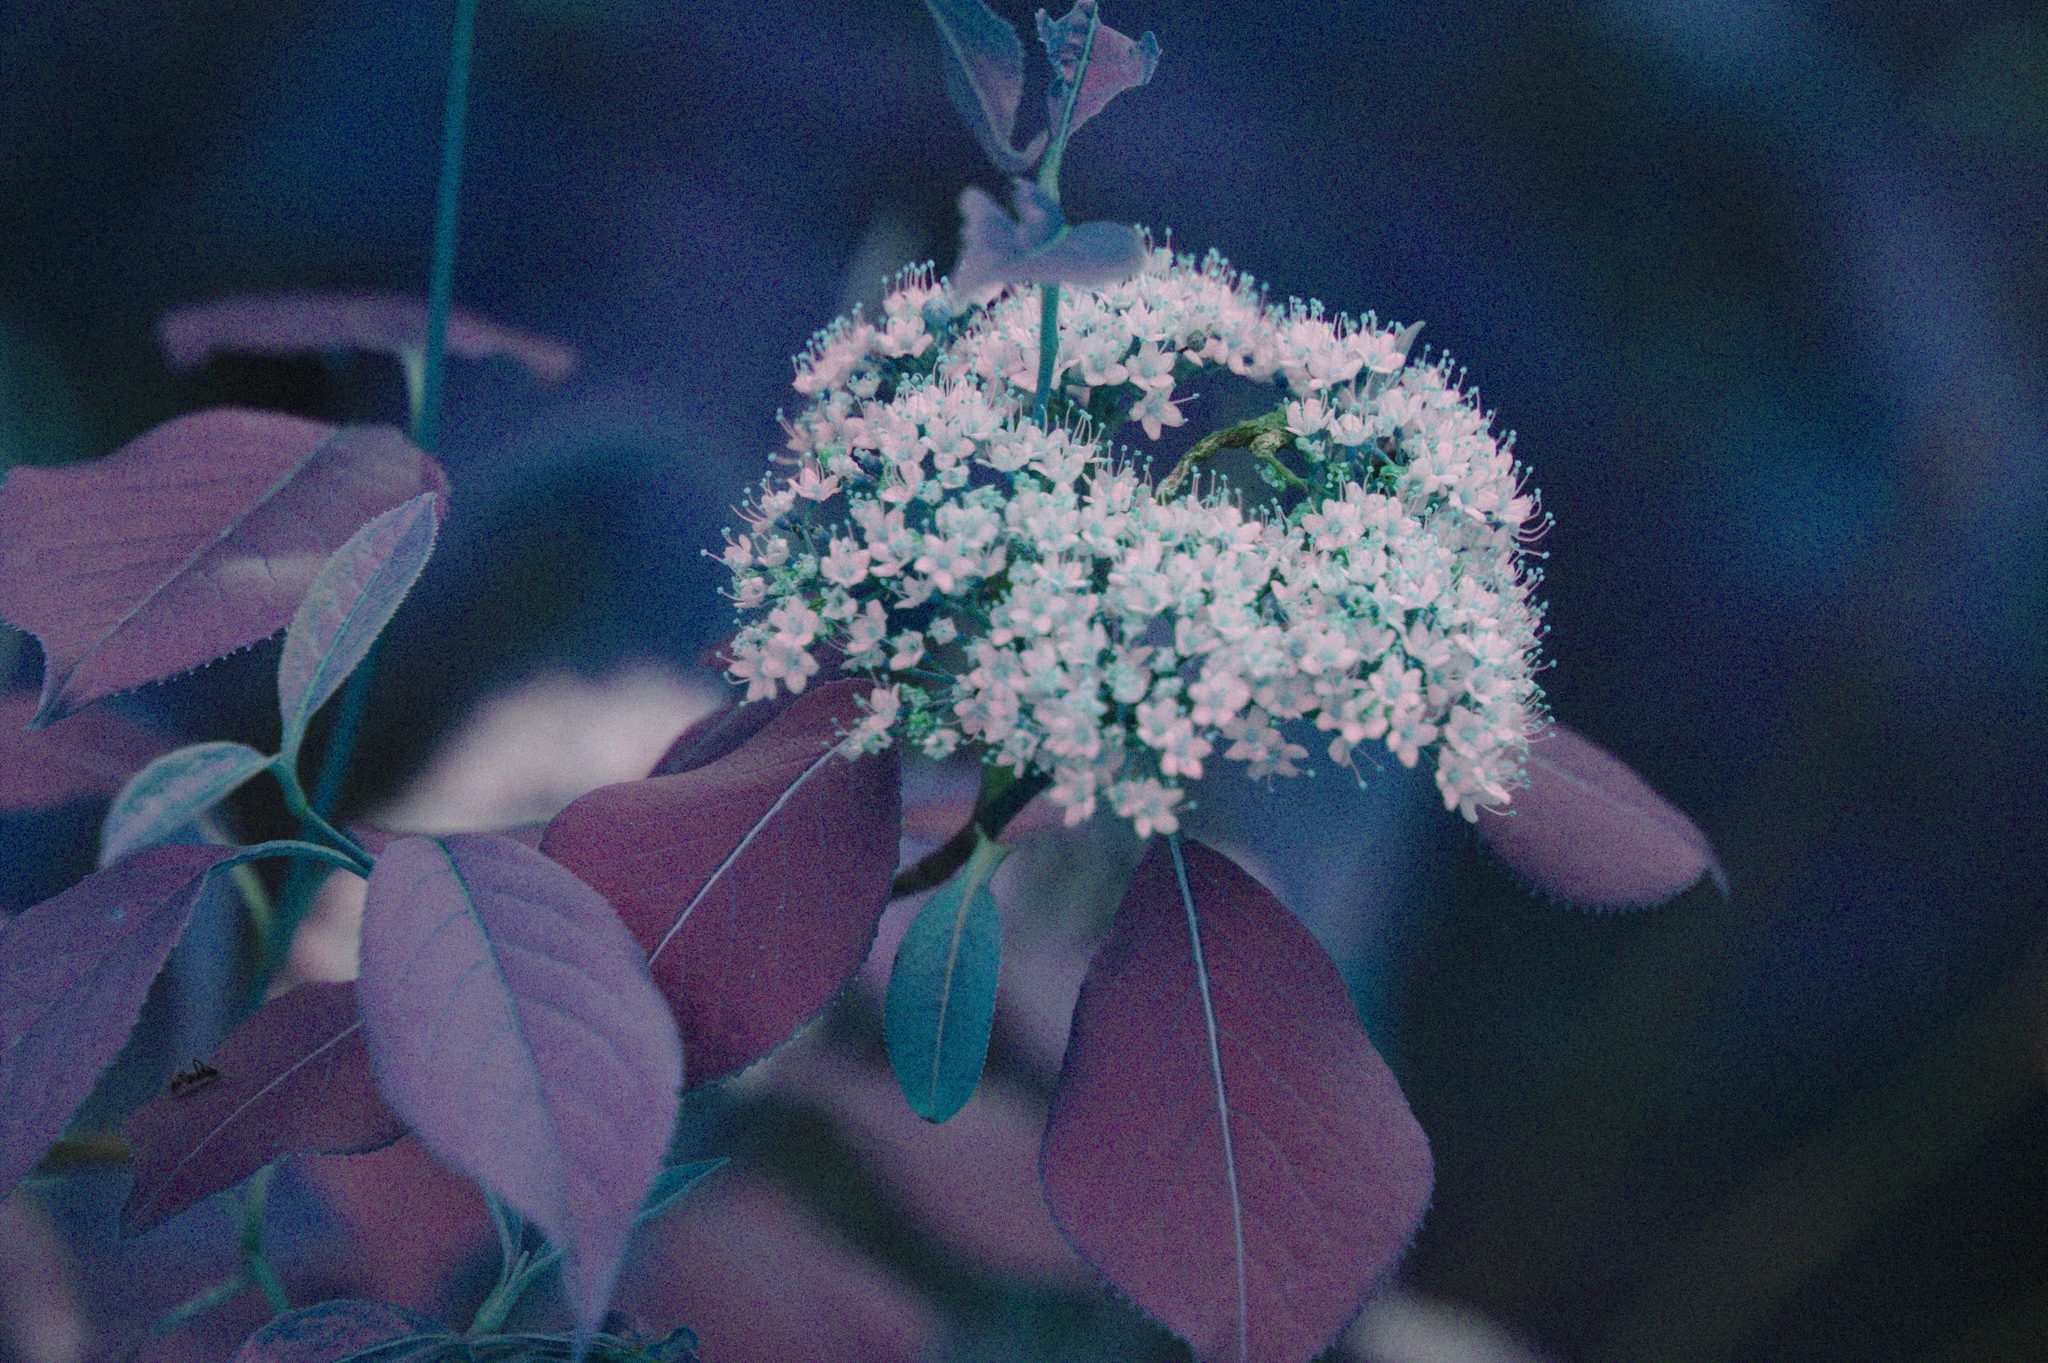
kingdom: Plantae
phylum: Tracheophyta
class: Magnoliopsida
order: Dipsacales
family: Viburnaceae
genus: Viburnum
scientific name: Viburnum lentago
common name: Black haw
